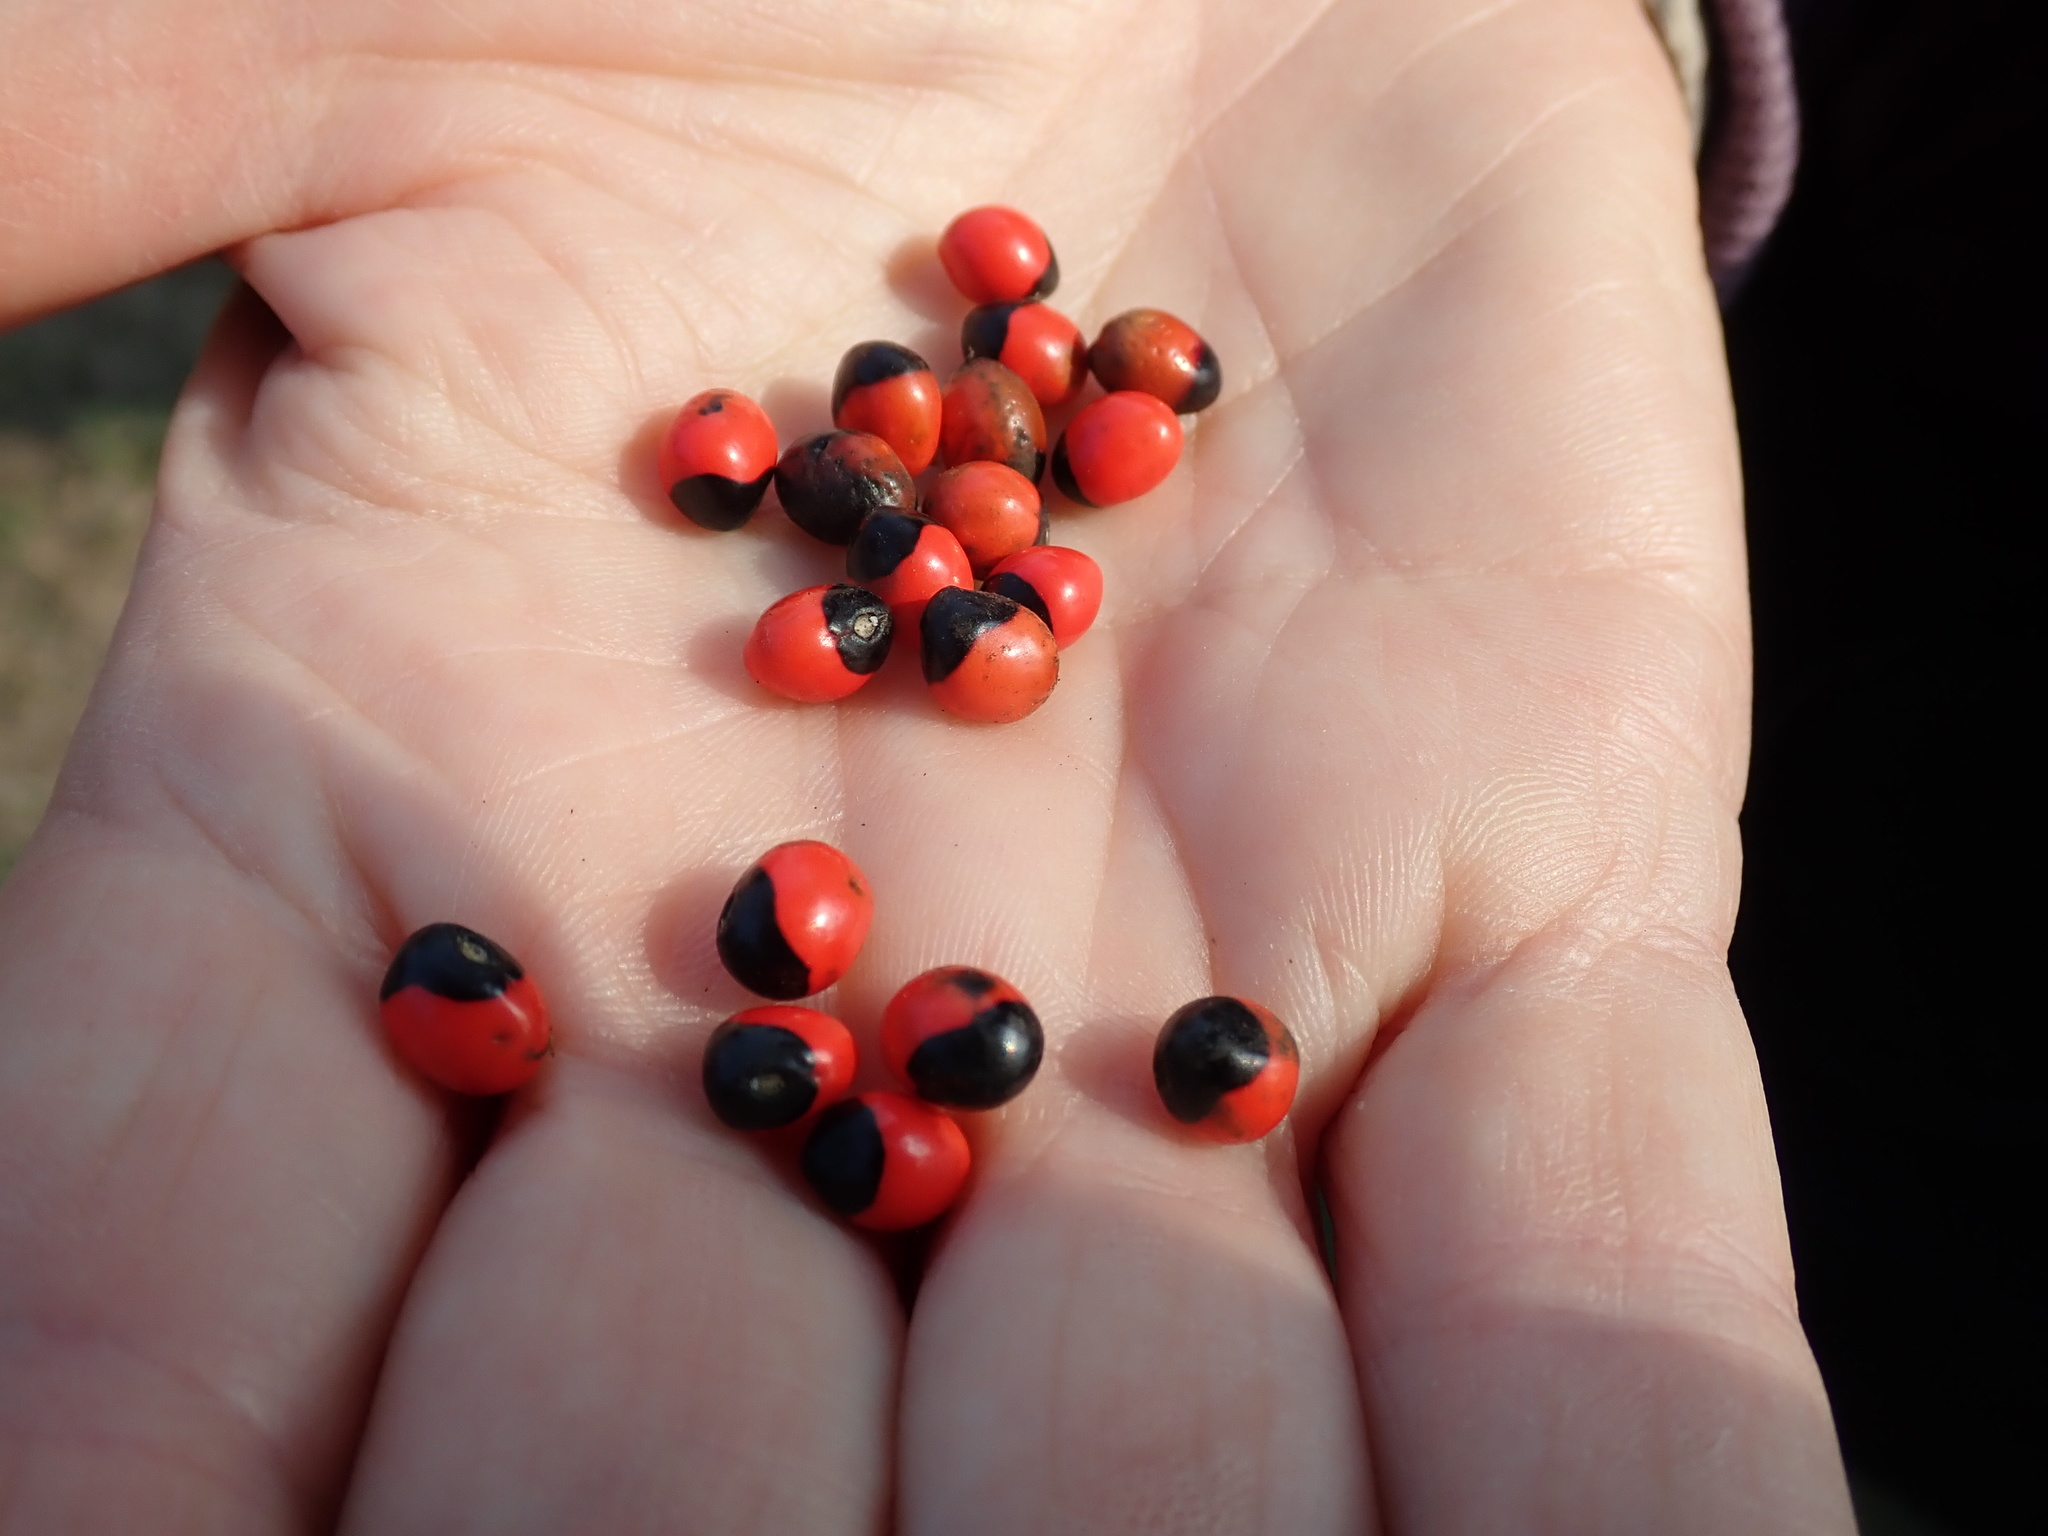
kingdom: Plantae
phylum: Tracheophyta
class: Magnoliopsida
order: Fabales
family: Fabaceae
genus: Abrus
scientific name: Abrus precatorius
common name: Rosarypea
